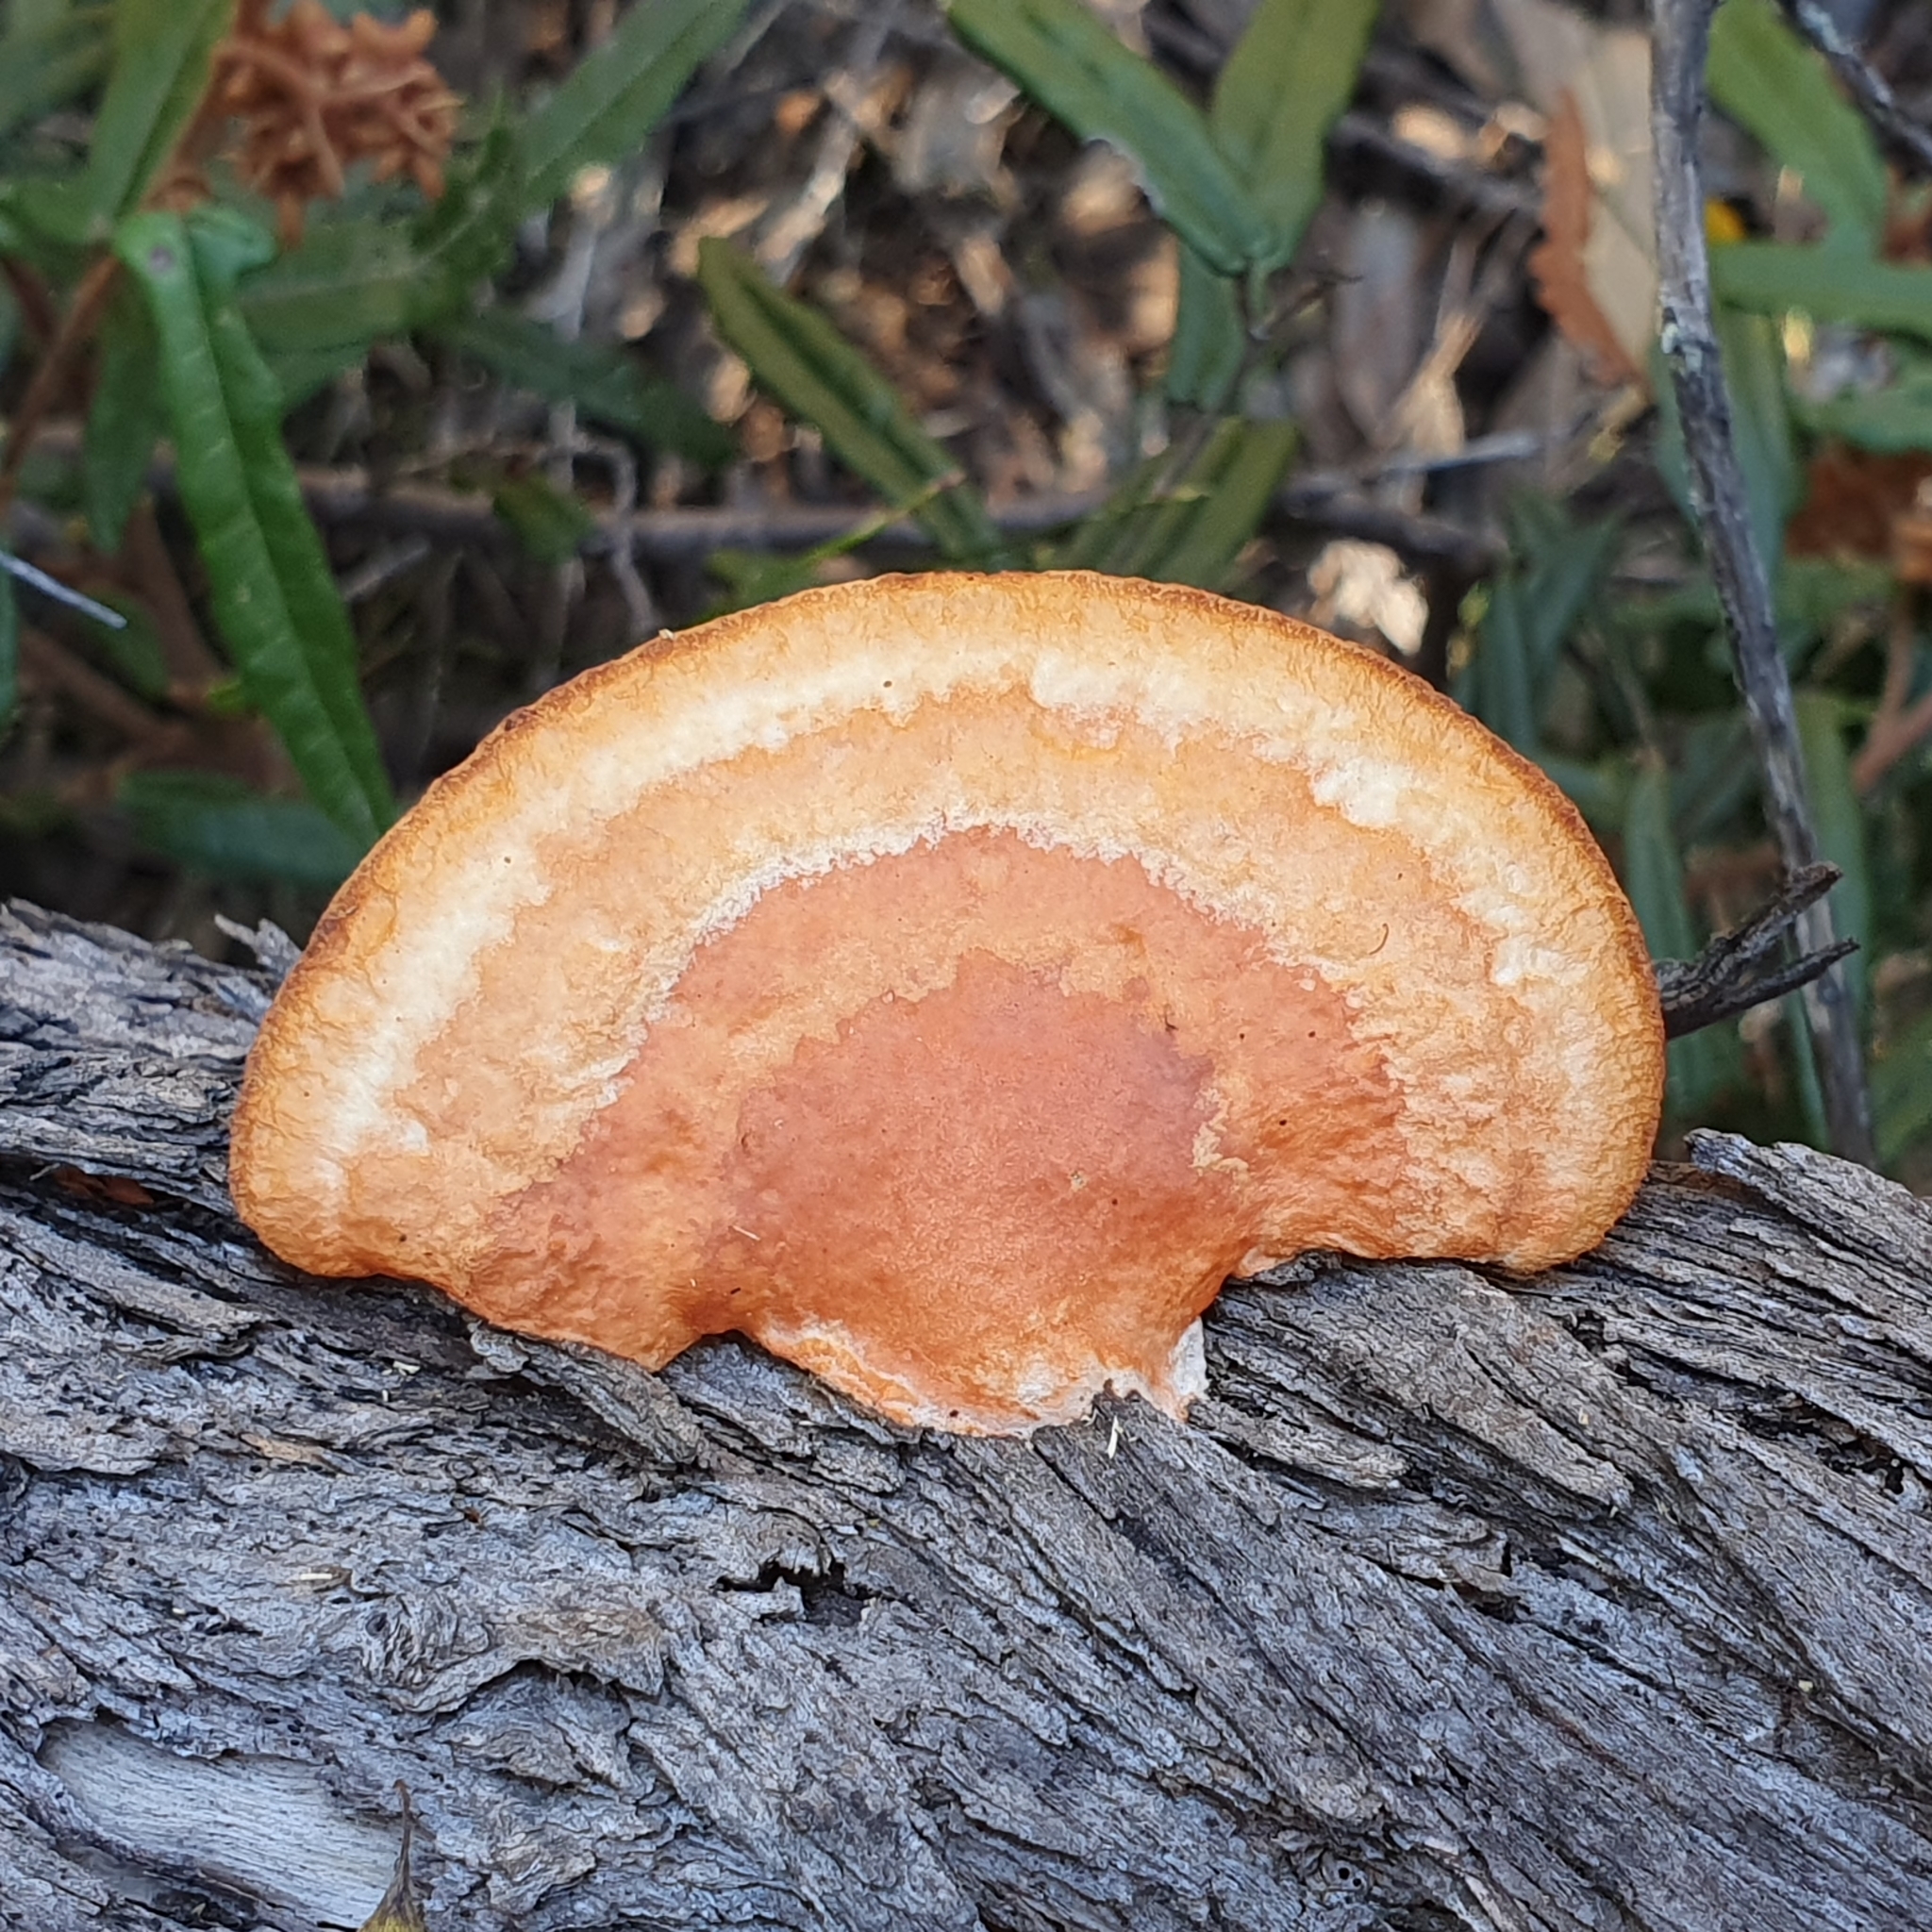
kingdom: Fungi
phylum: Basidiomycota
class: Agaricomycetes
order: Polyporales
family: Polyporaceae
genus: Trametes
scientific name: Trametes coccinea
